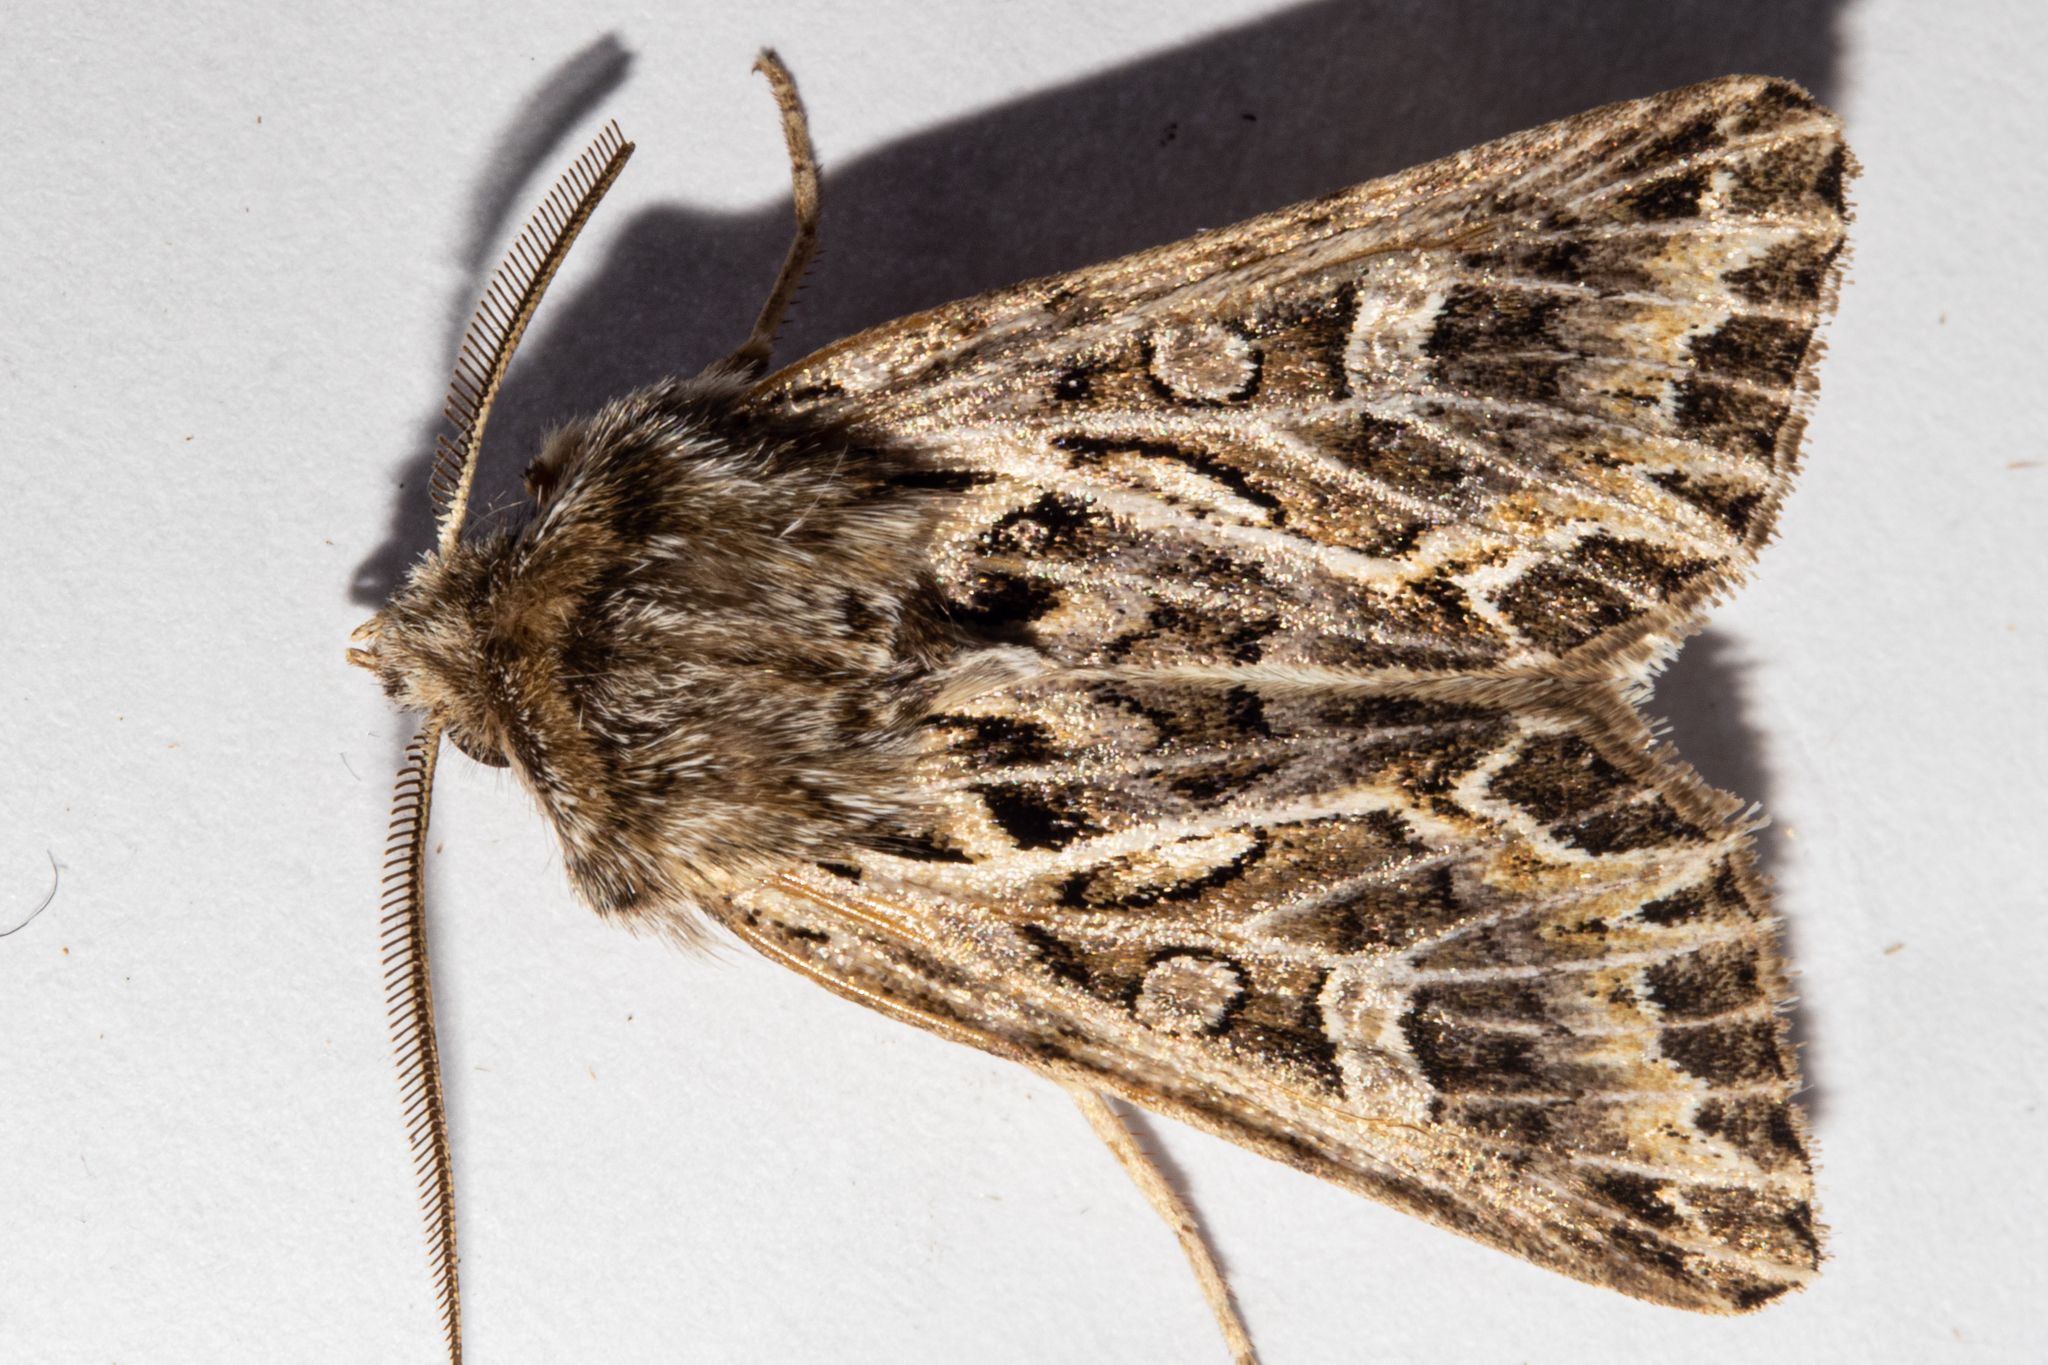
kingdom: Animalia
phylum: Arthropoda
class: Insecta
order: Lepidoptera
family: Noctuidae
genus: Ichneutica
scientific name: Ichneutica
